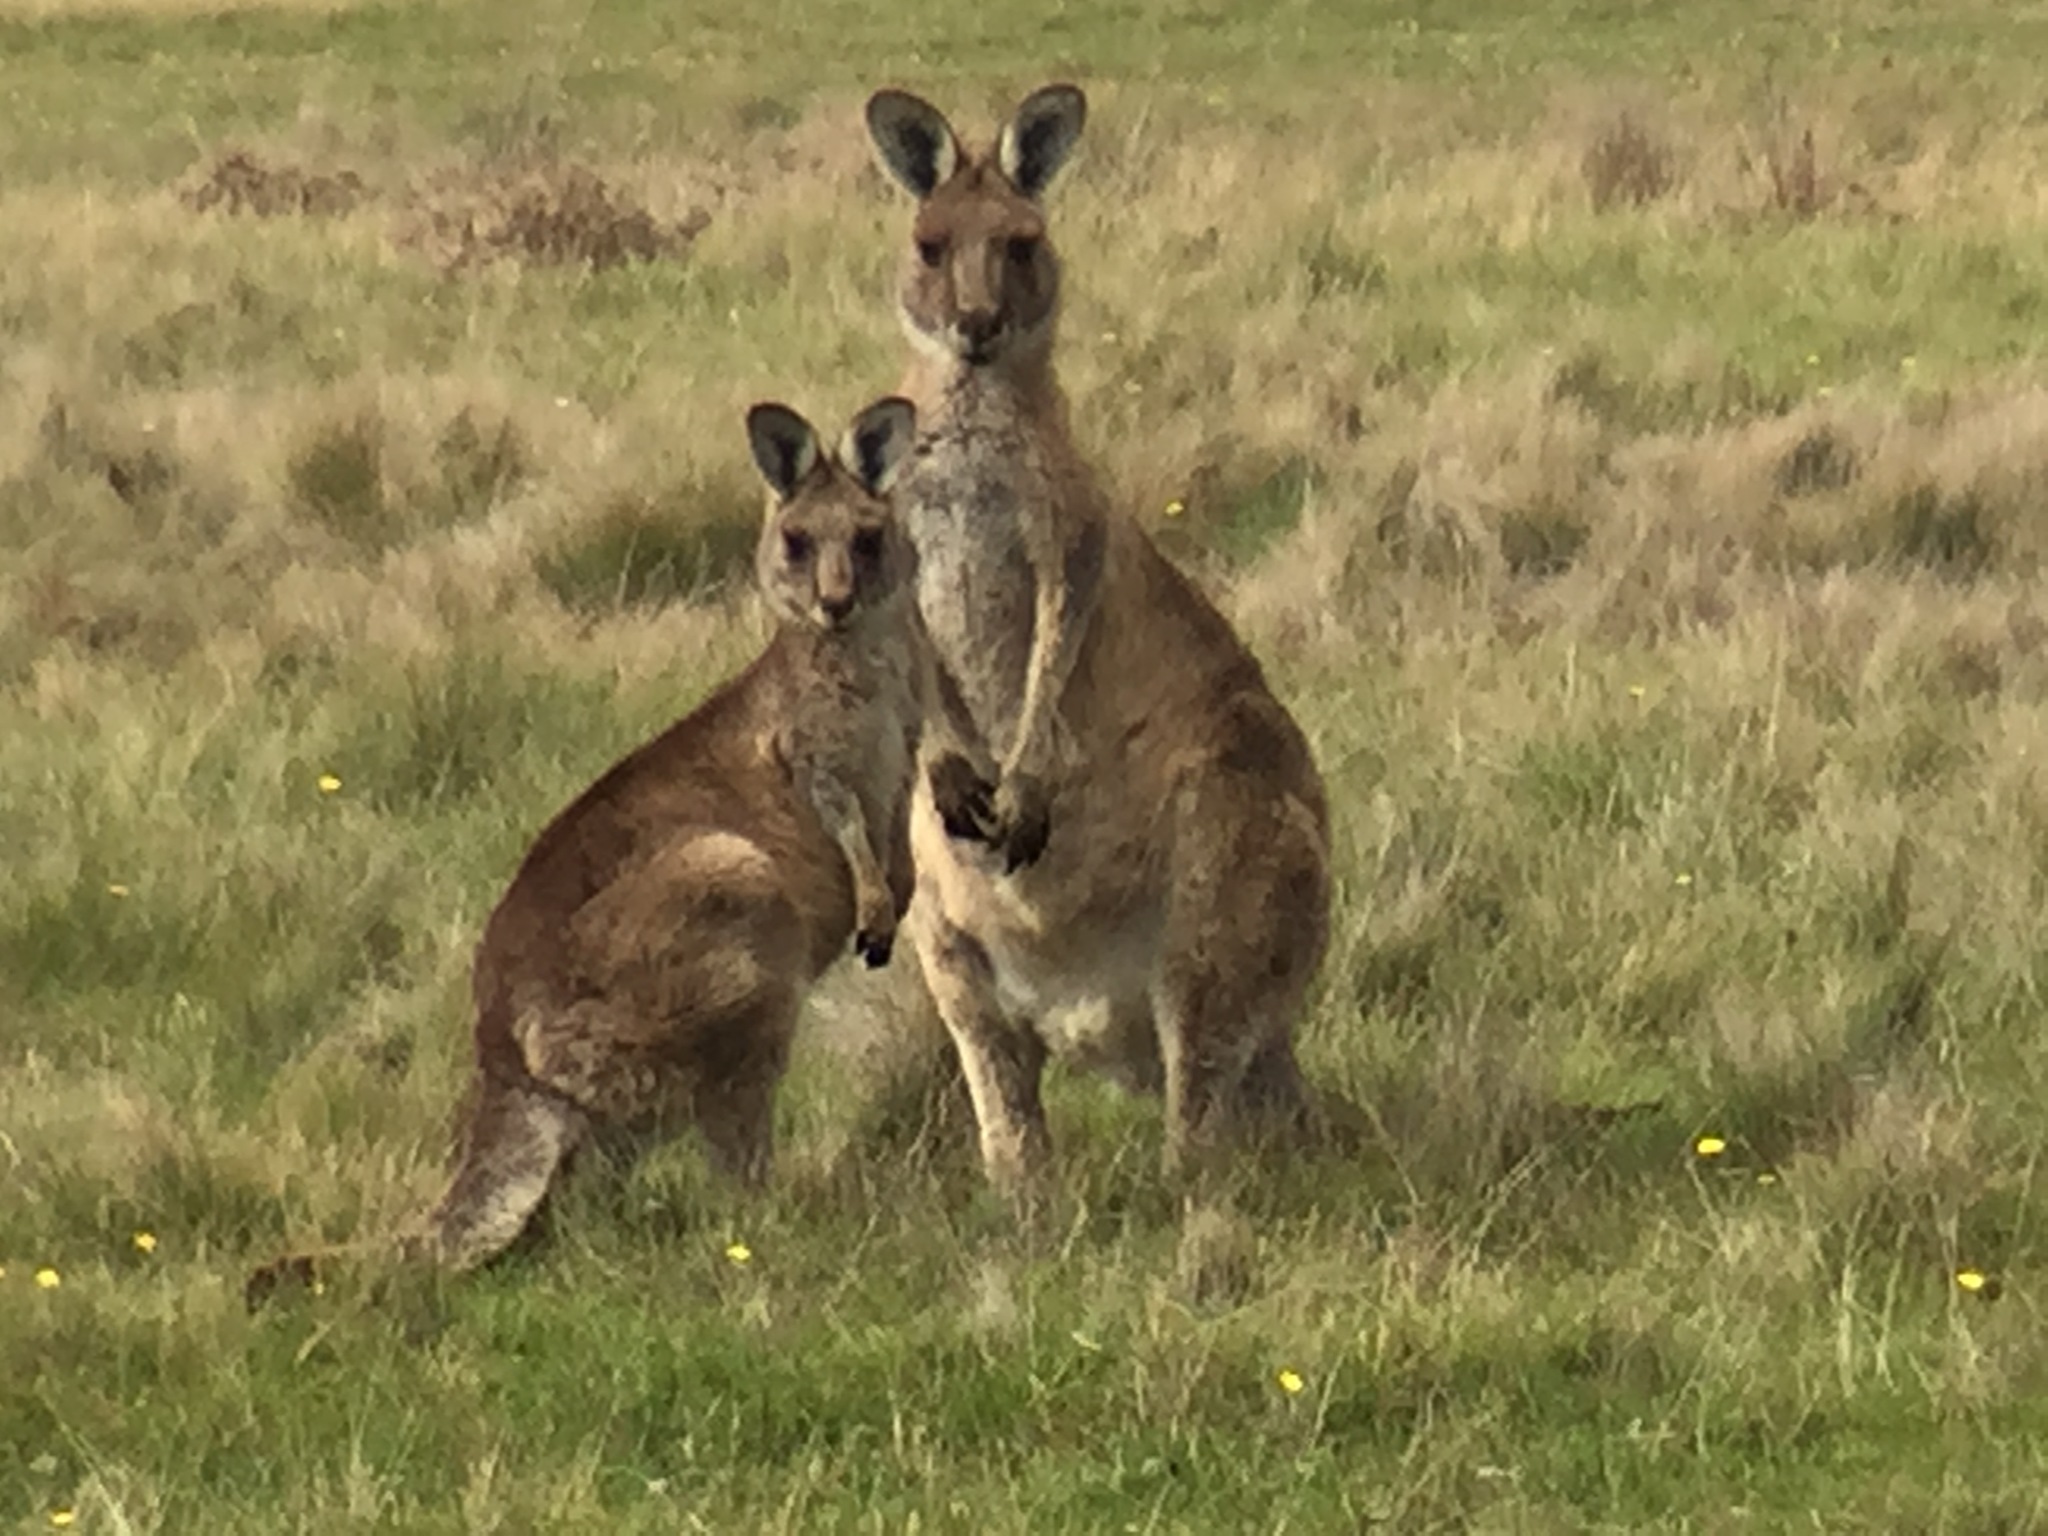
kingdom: Animalia
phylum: Chordata
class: Mammalia
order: Diprotodontia
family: Macropodidae
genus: Macropus
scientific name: Macropus giganteus
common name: Eastern grey kangaroo
